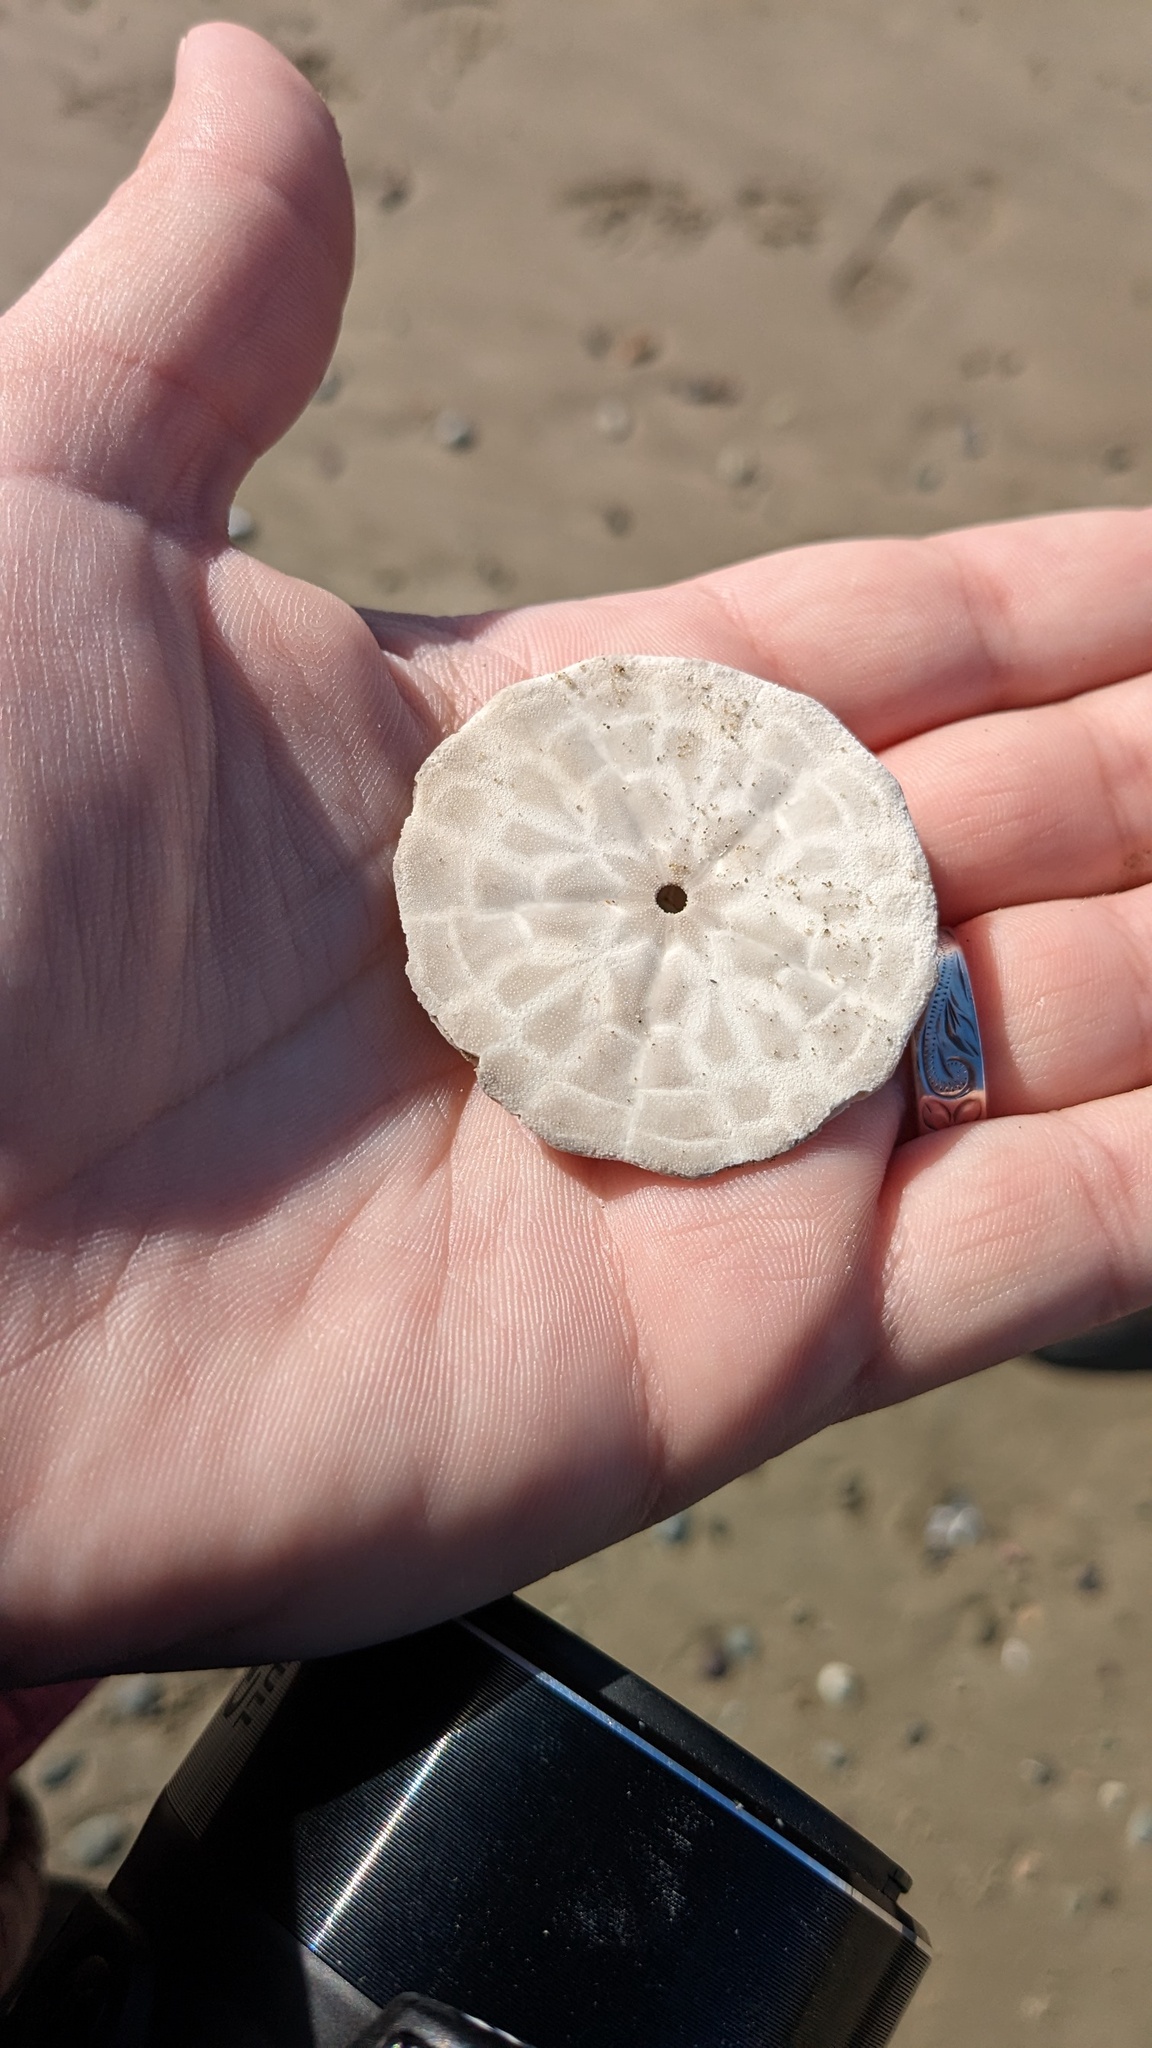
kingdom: Animalia
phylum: Echinodermata
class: Echinoidea
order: Echinolampadacea
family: Echinarachniidae
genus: Echinarachnius
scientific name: Echinarachnius parma
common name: Common sand dollar
